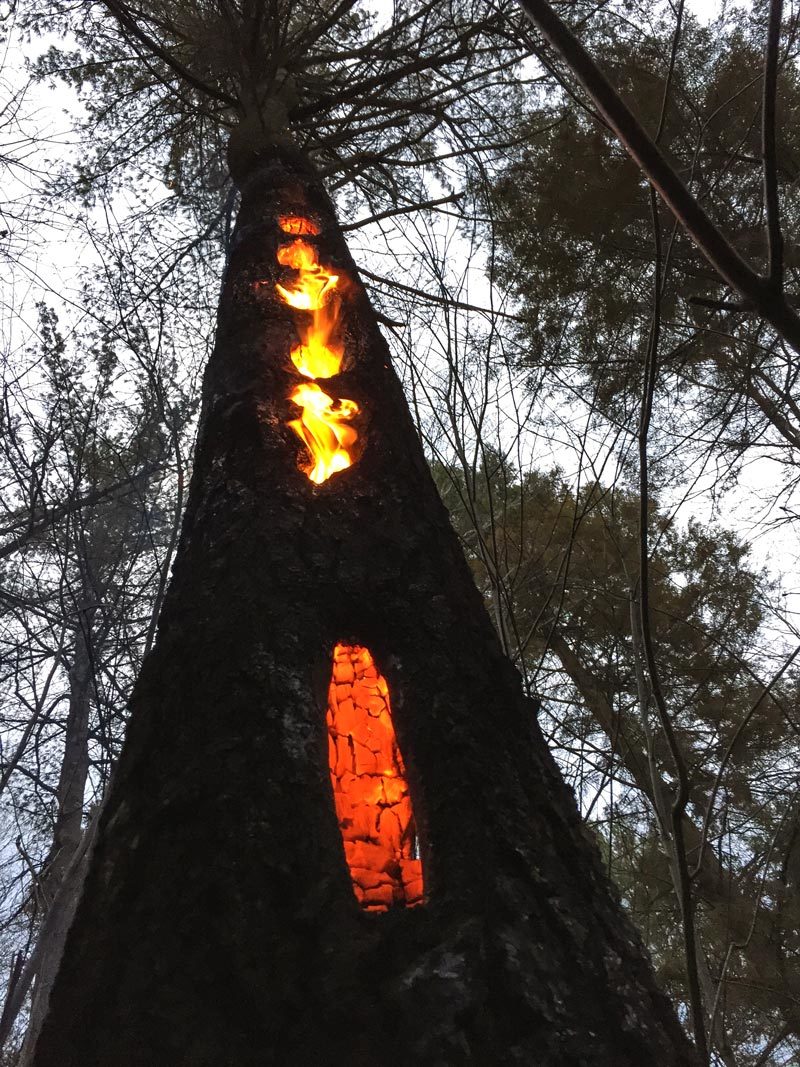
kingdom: Plantae
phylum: Tracheophyta
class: Pinopsida
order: Pinales
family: Pinaceae
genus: Pinus
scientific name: Pinus strobus
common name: Weymouth pine
